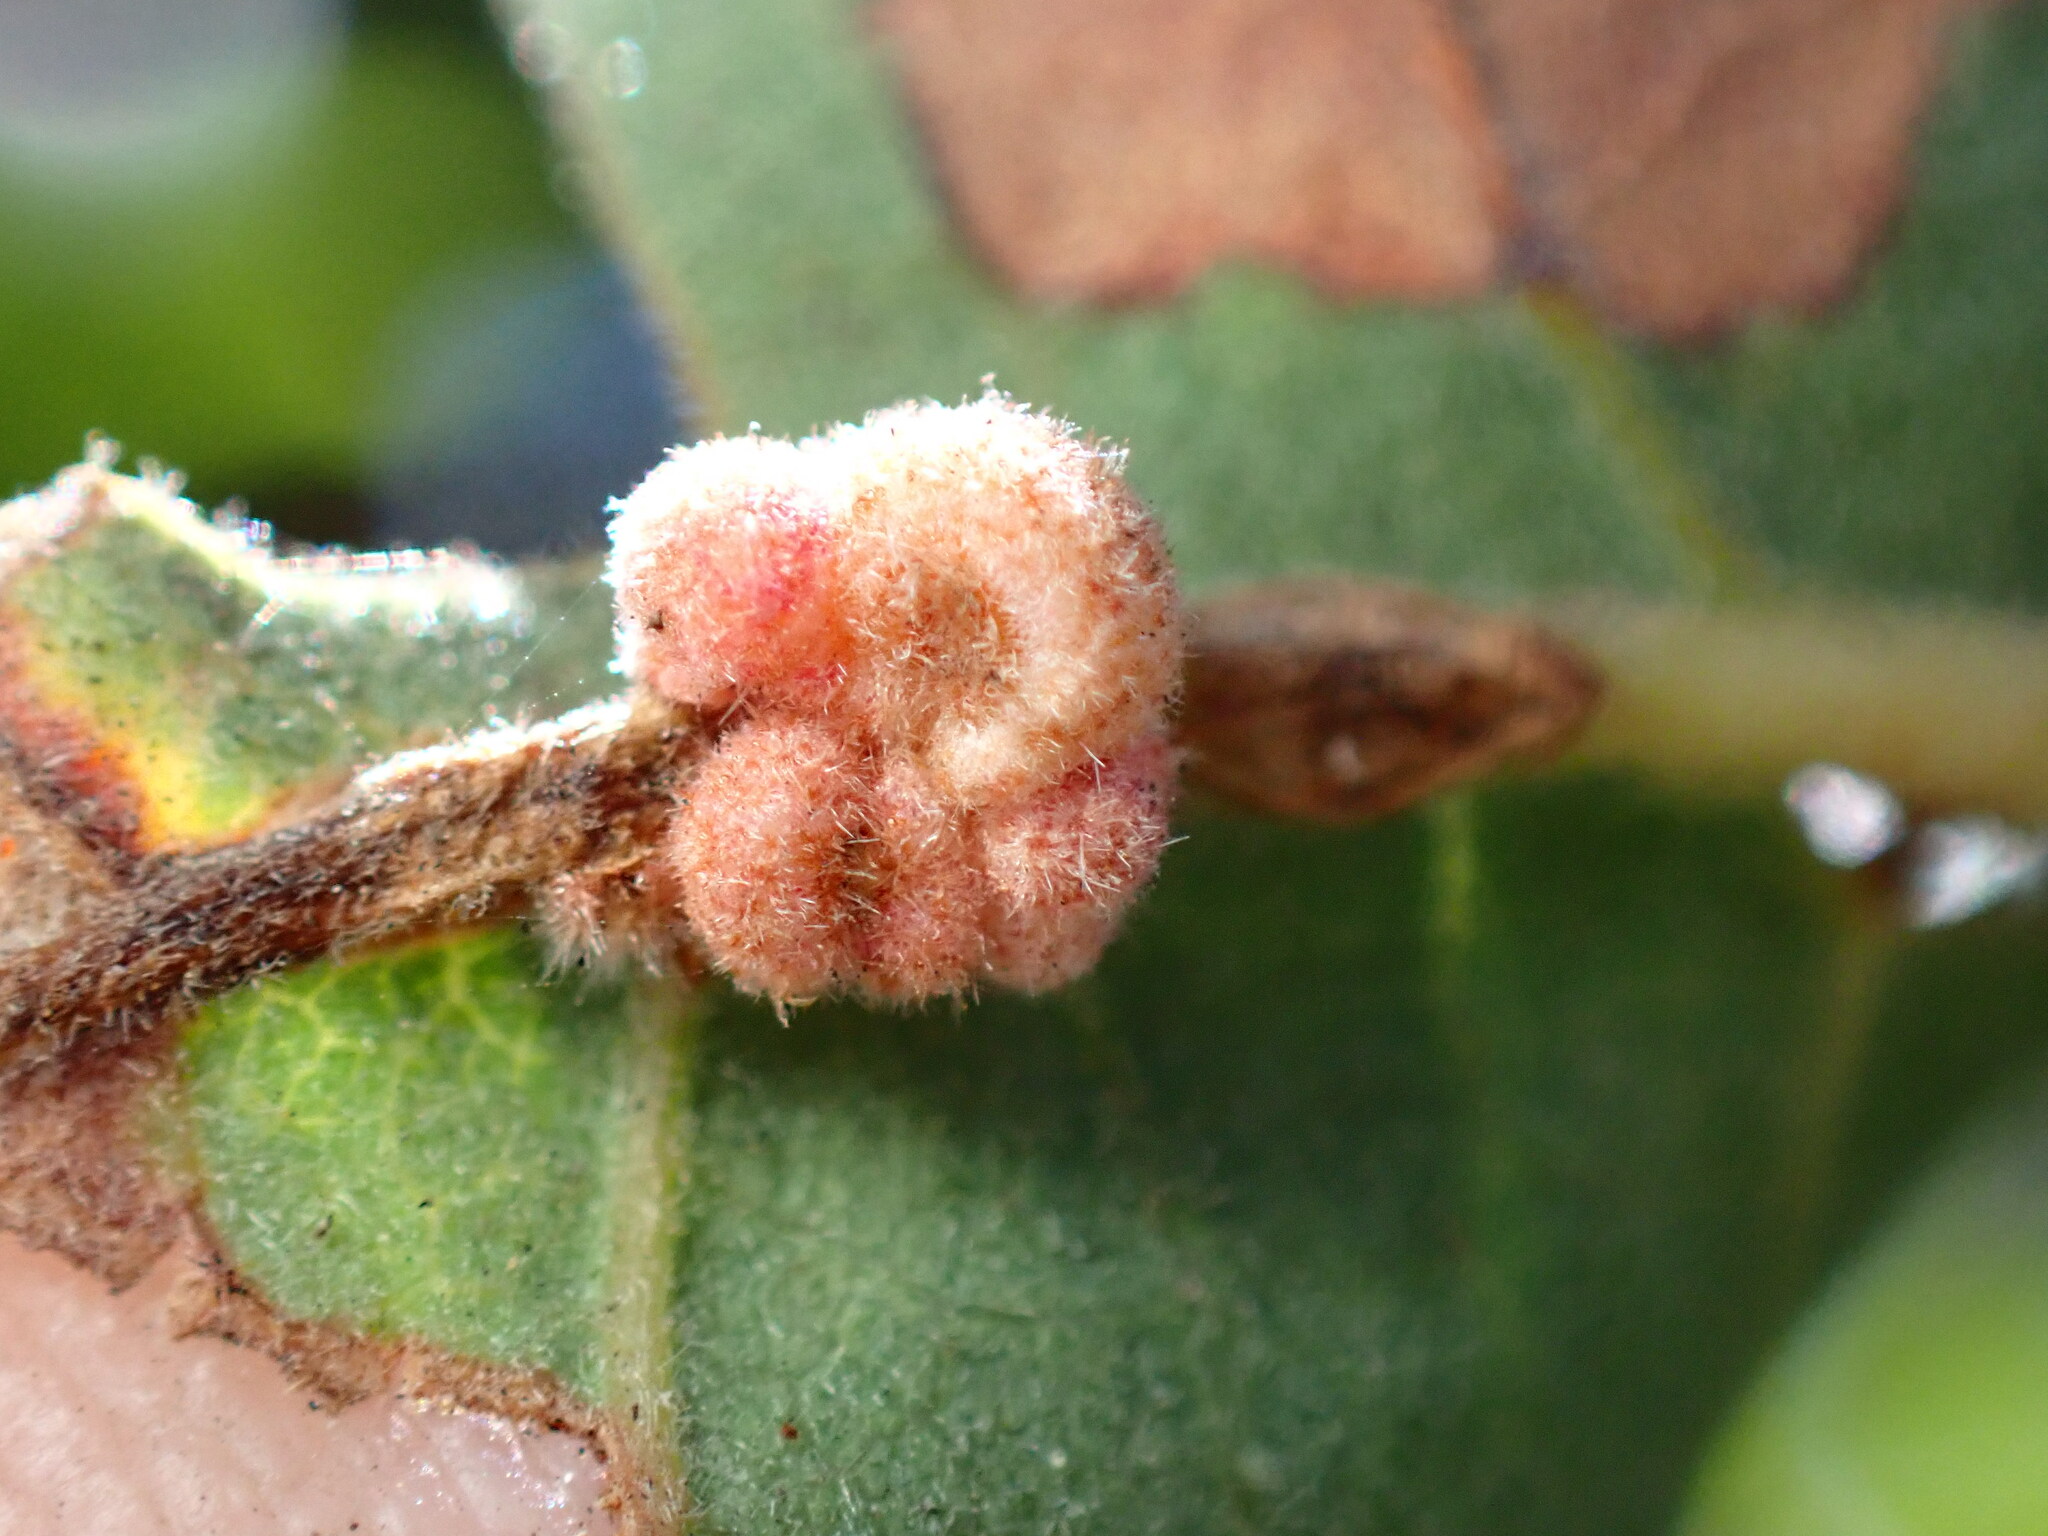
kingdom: Animalia
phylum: Arthropoda
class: Insecta
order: Hymenoptera
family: Cynipidae
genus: Andricus
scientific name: Andricus
